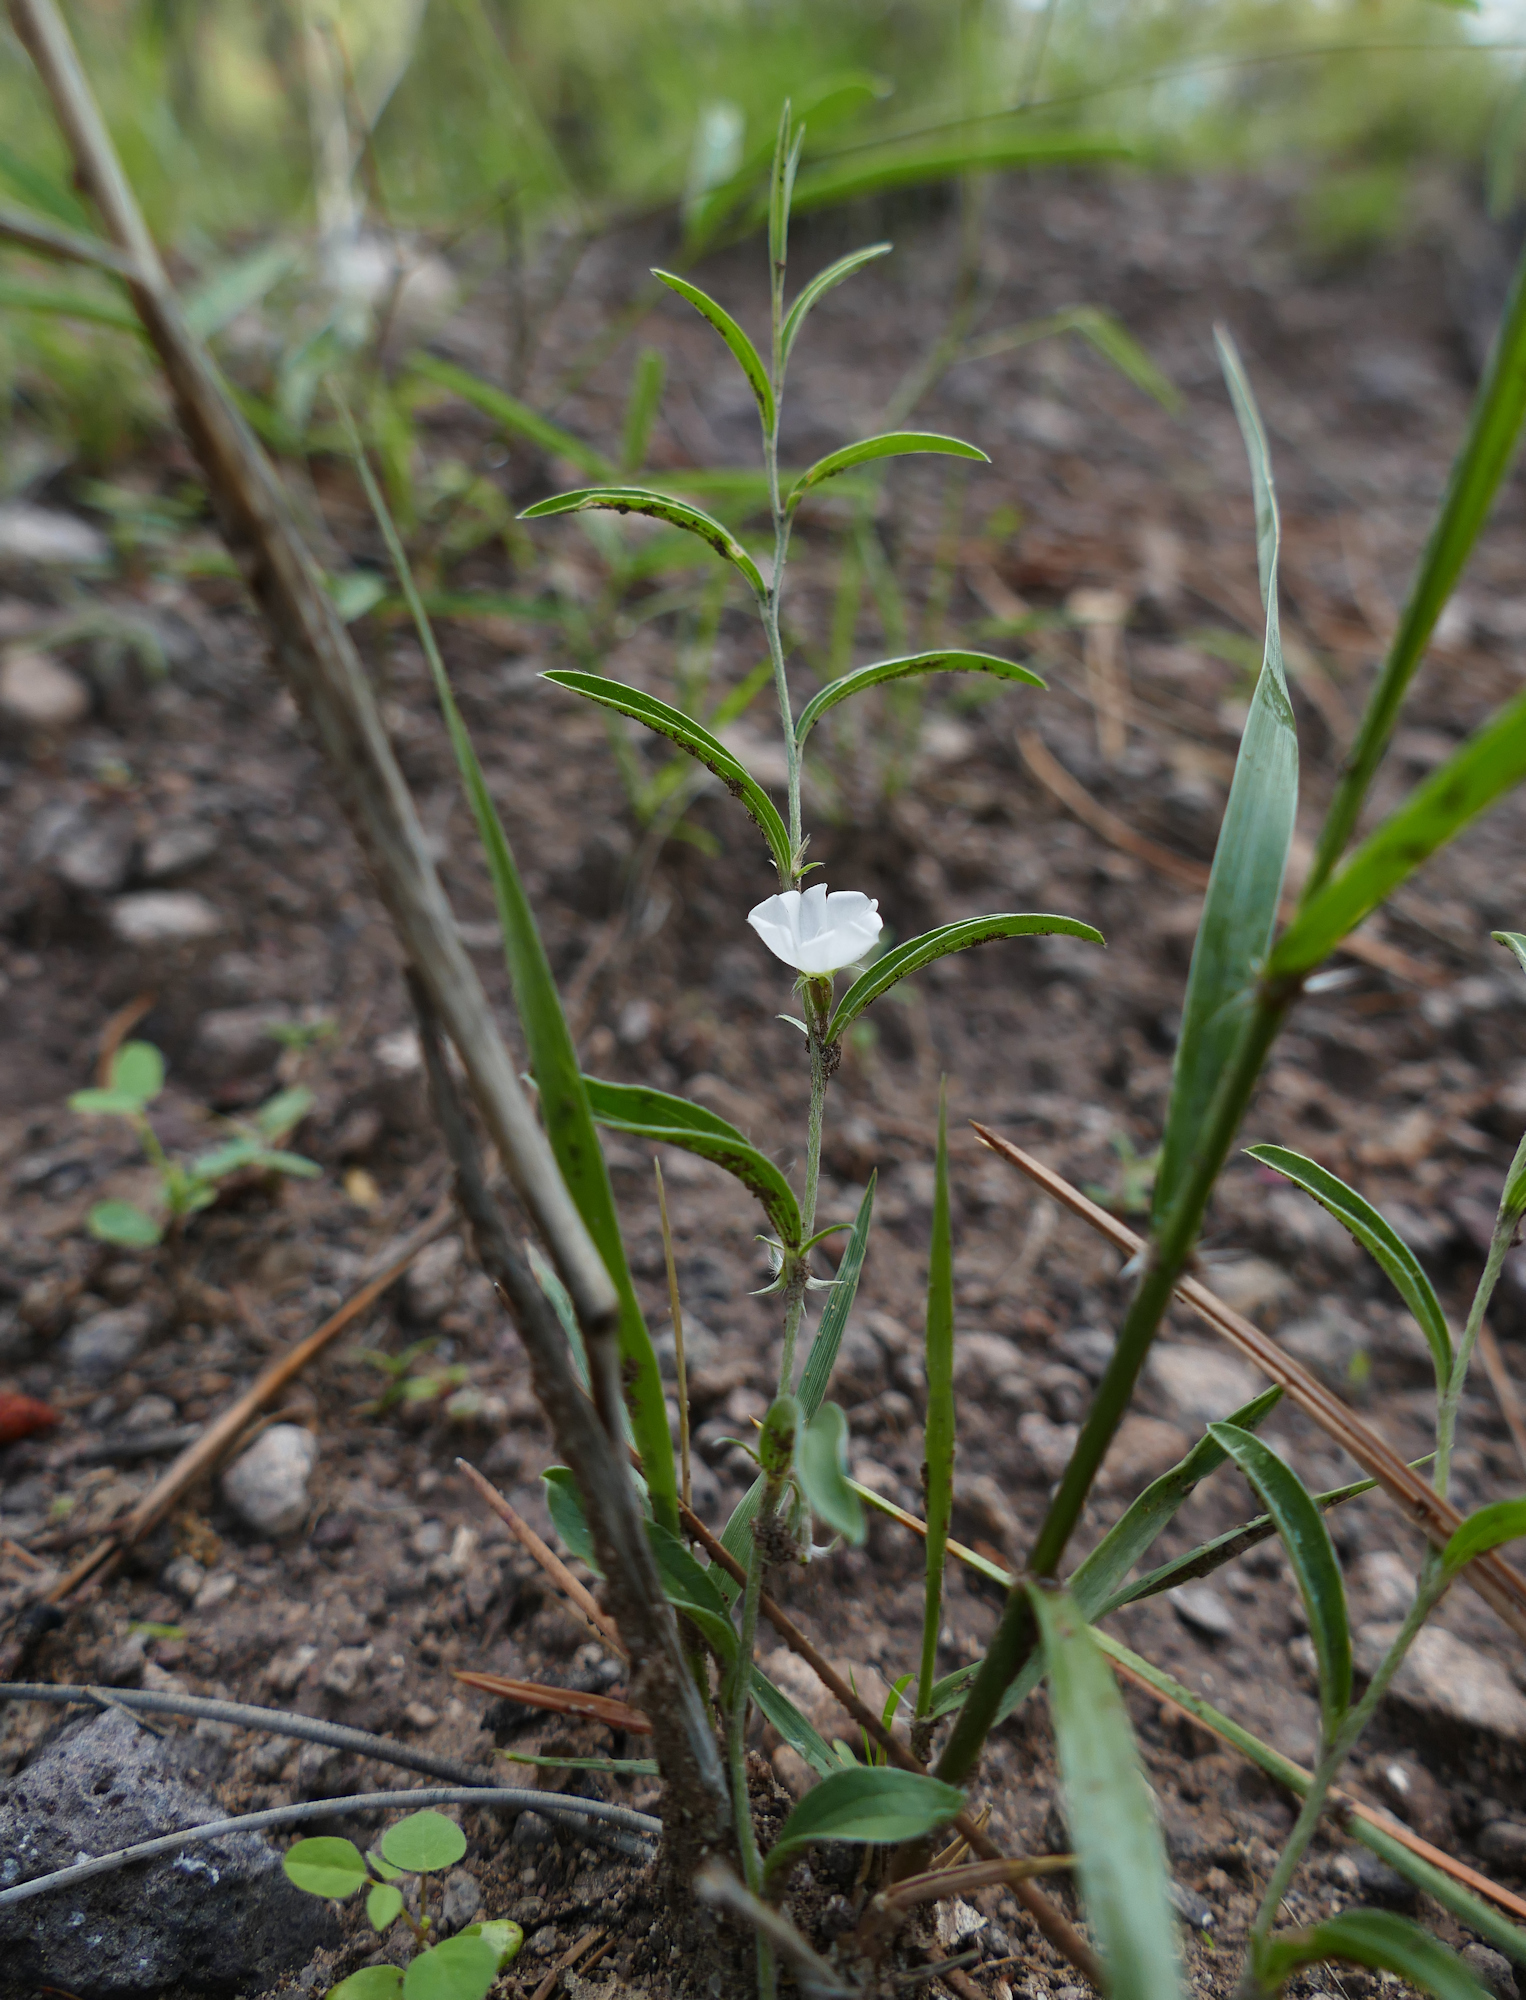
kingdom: Plantae
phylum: Tracheophyta
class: Magnoliopsida
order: Solanales
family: Convolvulaceae
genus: Evolvulus
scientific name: Evolvulus sericeus
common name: Blue dots
